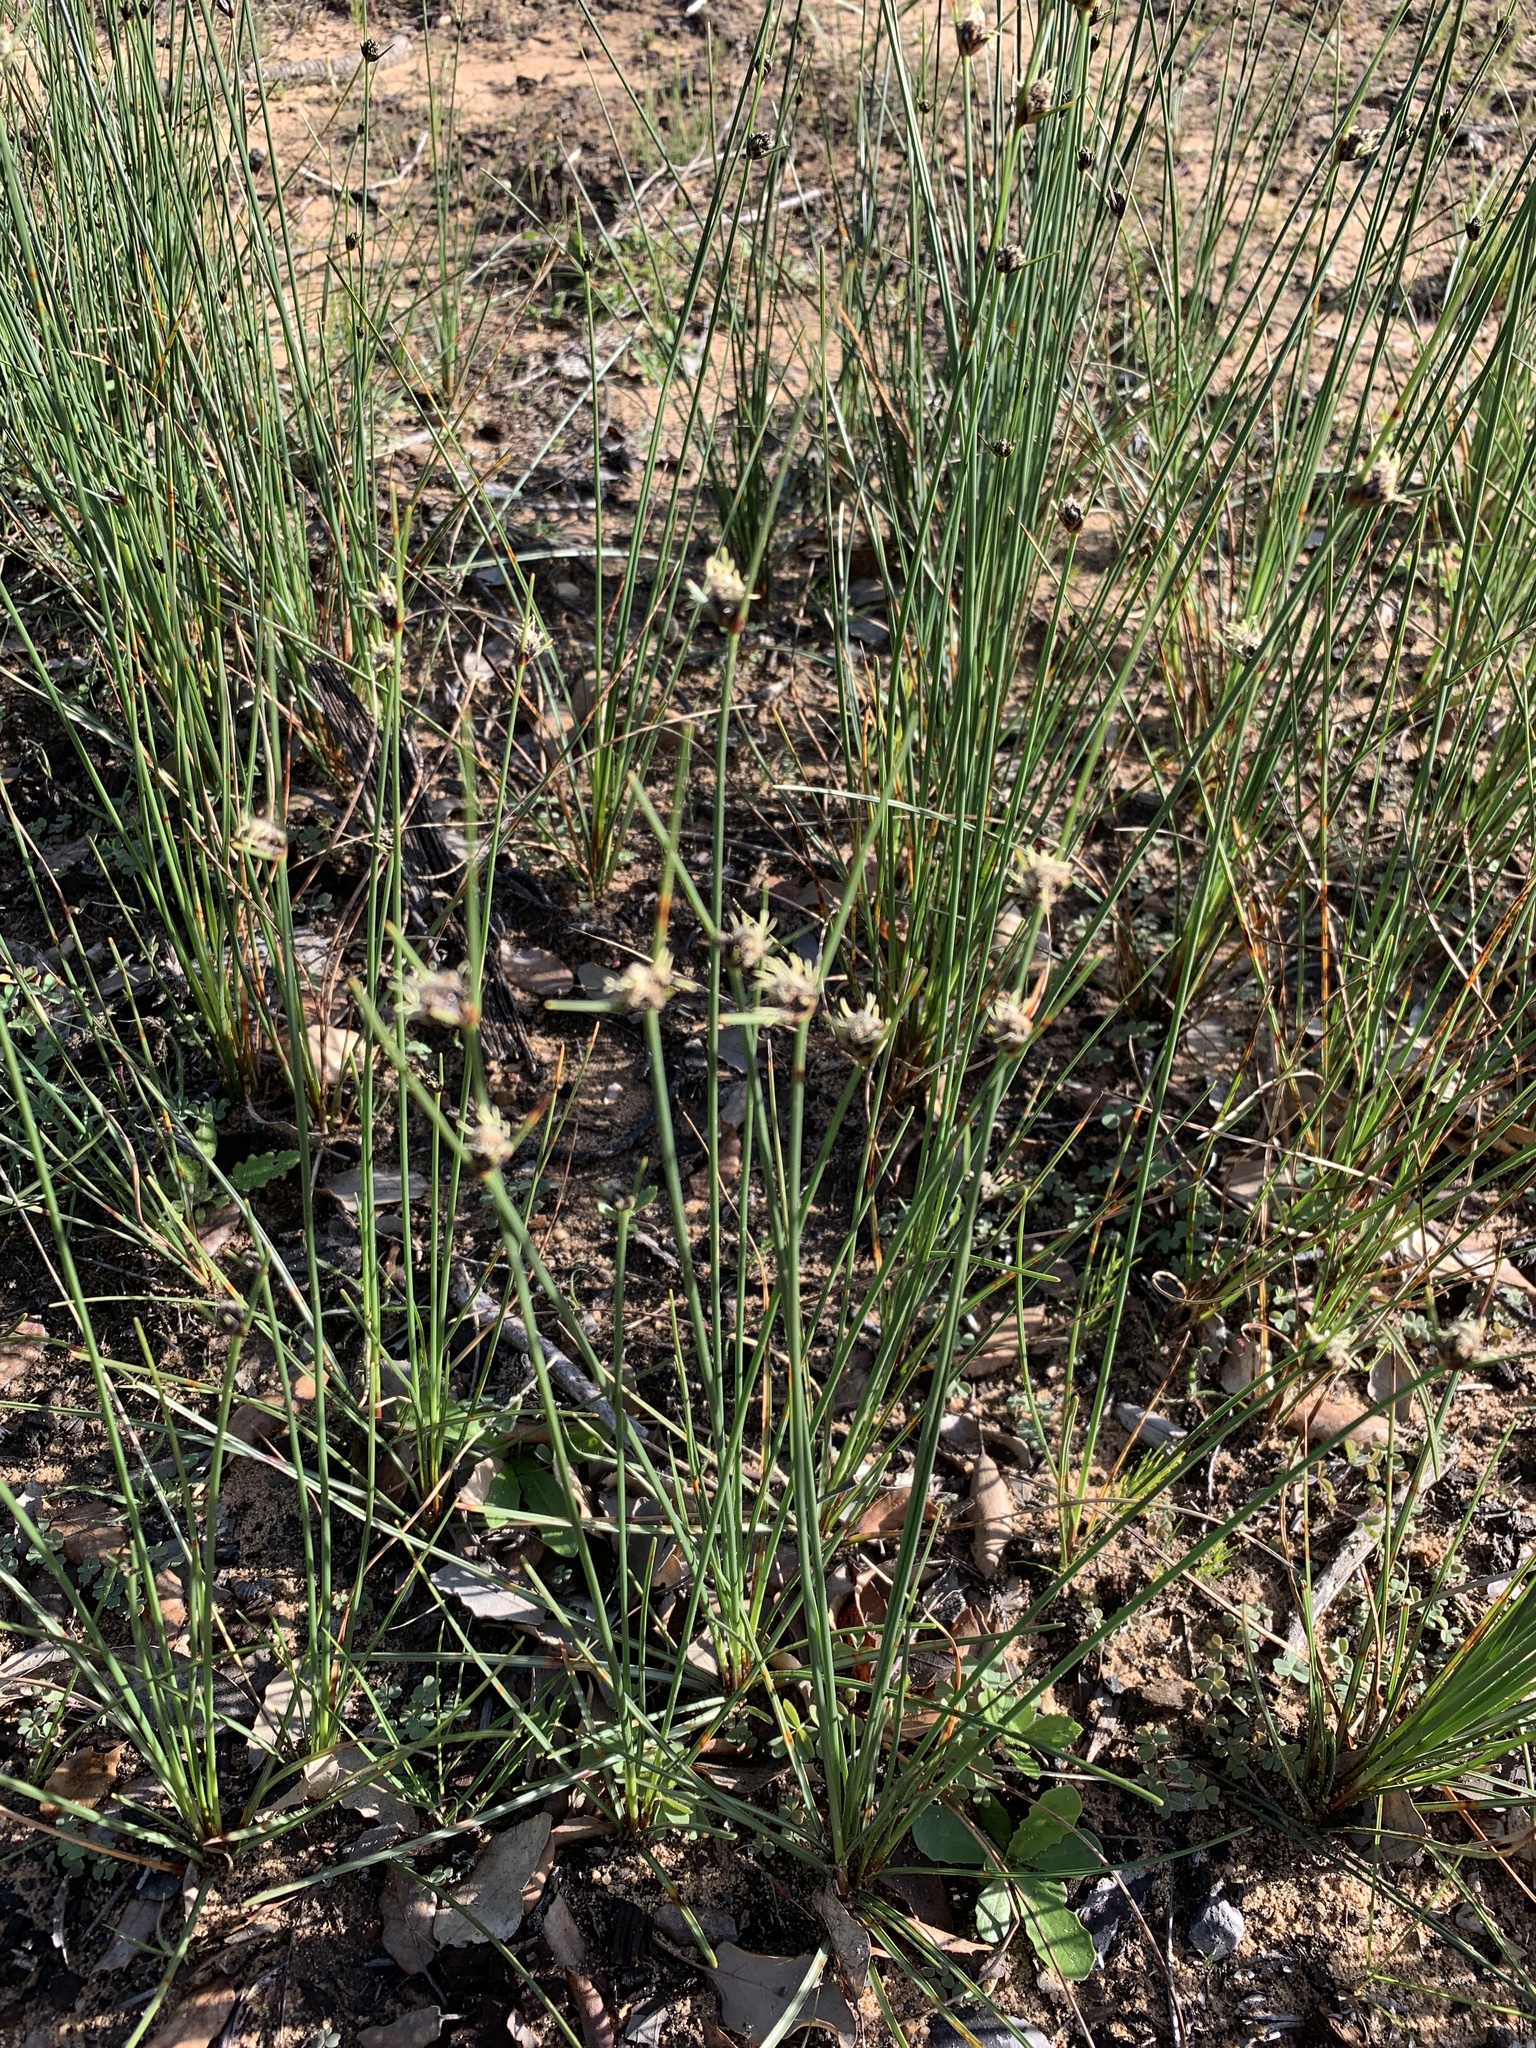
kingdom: Plantae
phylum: Tracheophyta
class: Liliopsida
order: Poales
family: Cyperaceae
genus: Ficinia
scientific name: Ficinia indica
